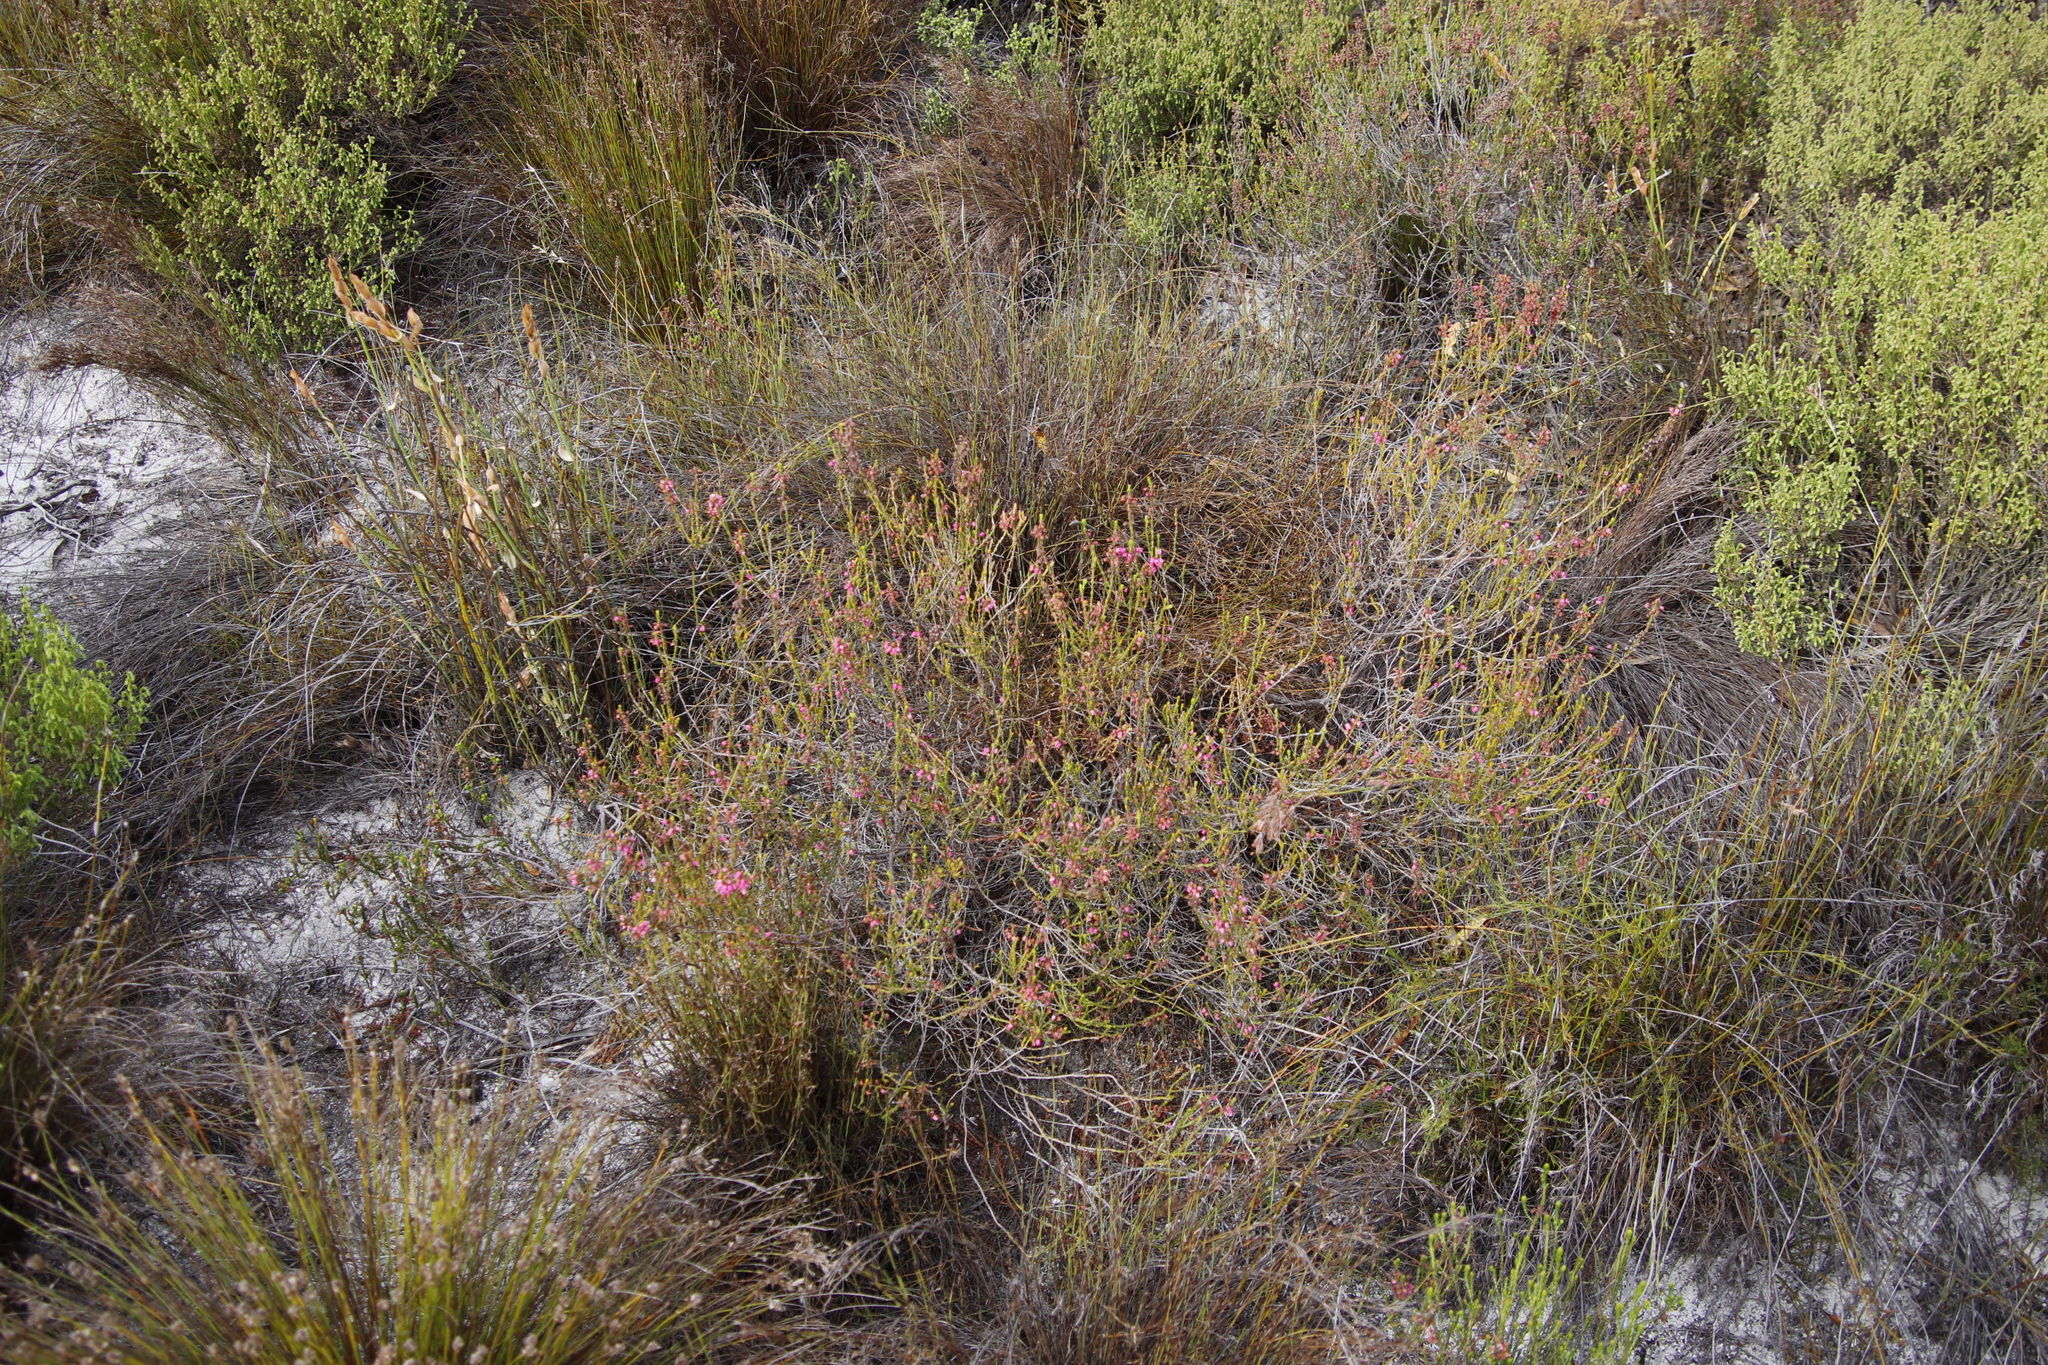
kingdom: Plantae
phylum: Tracheophyta
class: Magnoliopsida
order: Ericales
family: Ericaceae
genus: Erica
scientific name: Erica pulchella
